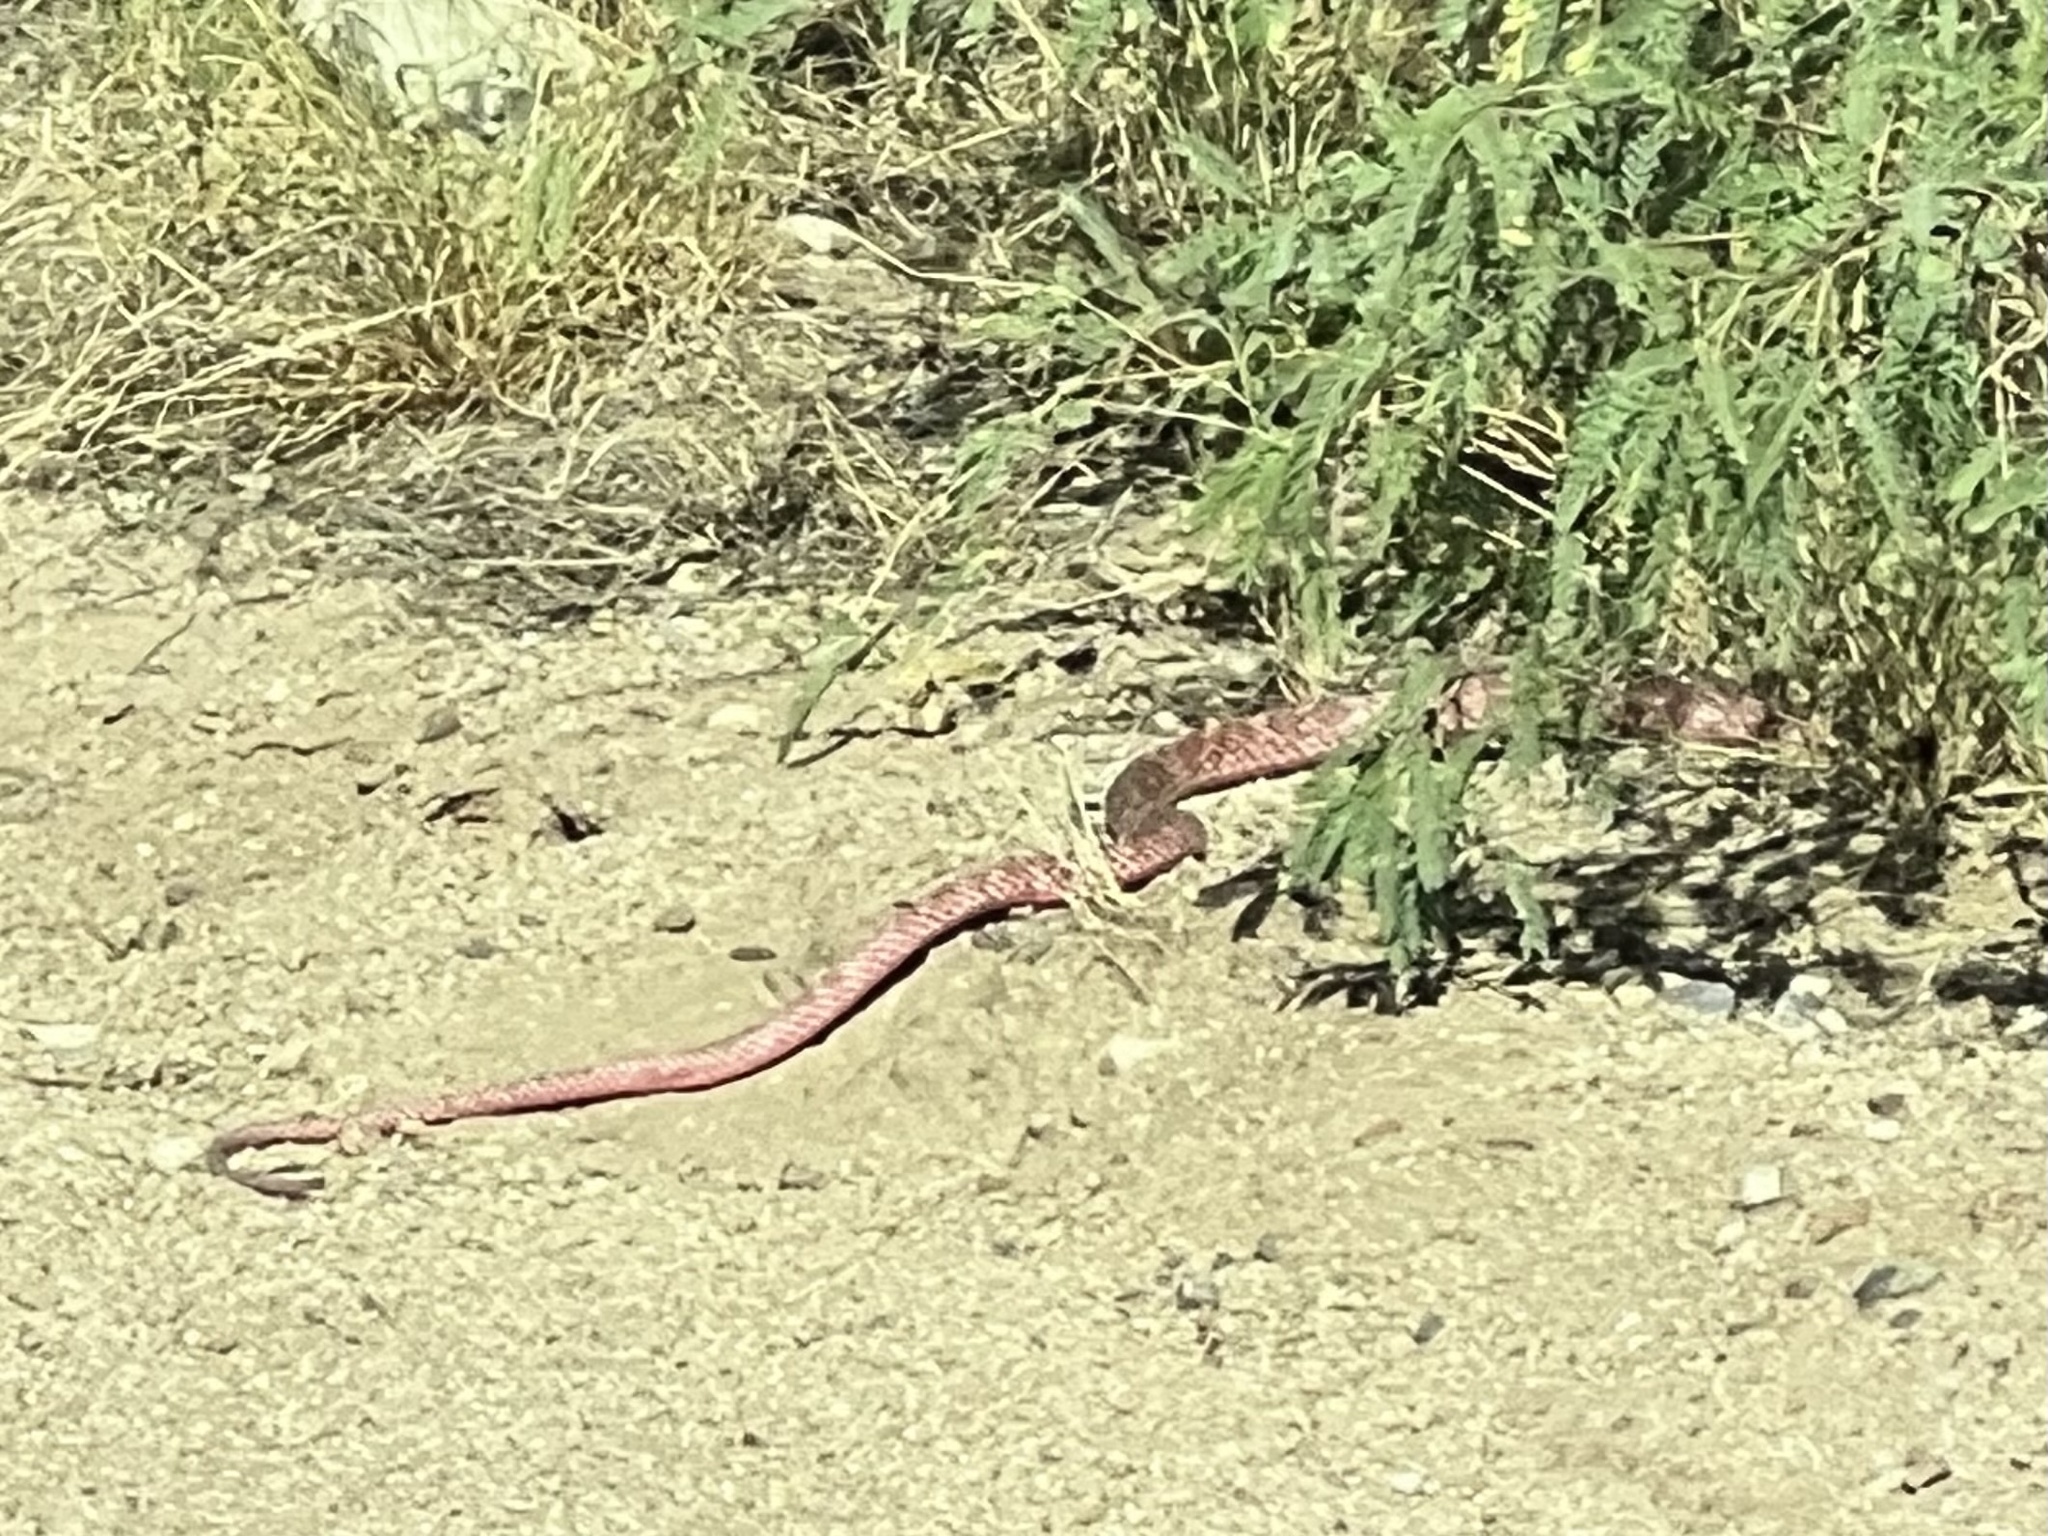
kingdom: Animalia
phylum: Chordata
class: Squamata
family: Colubridae
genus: Masticophis
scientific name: Masticophis flagellum
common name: Coachwhip
